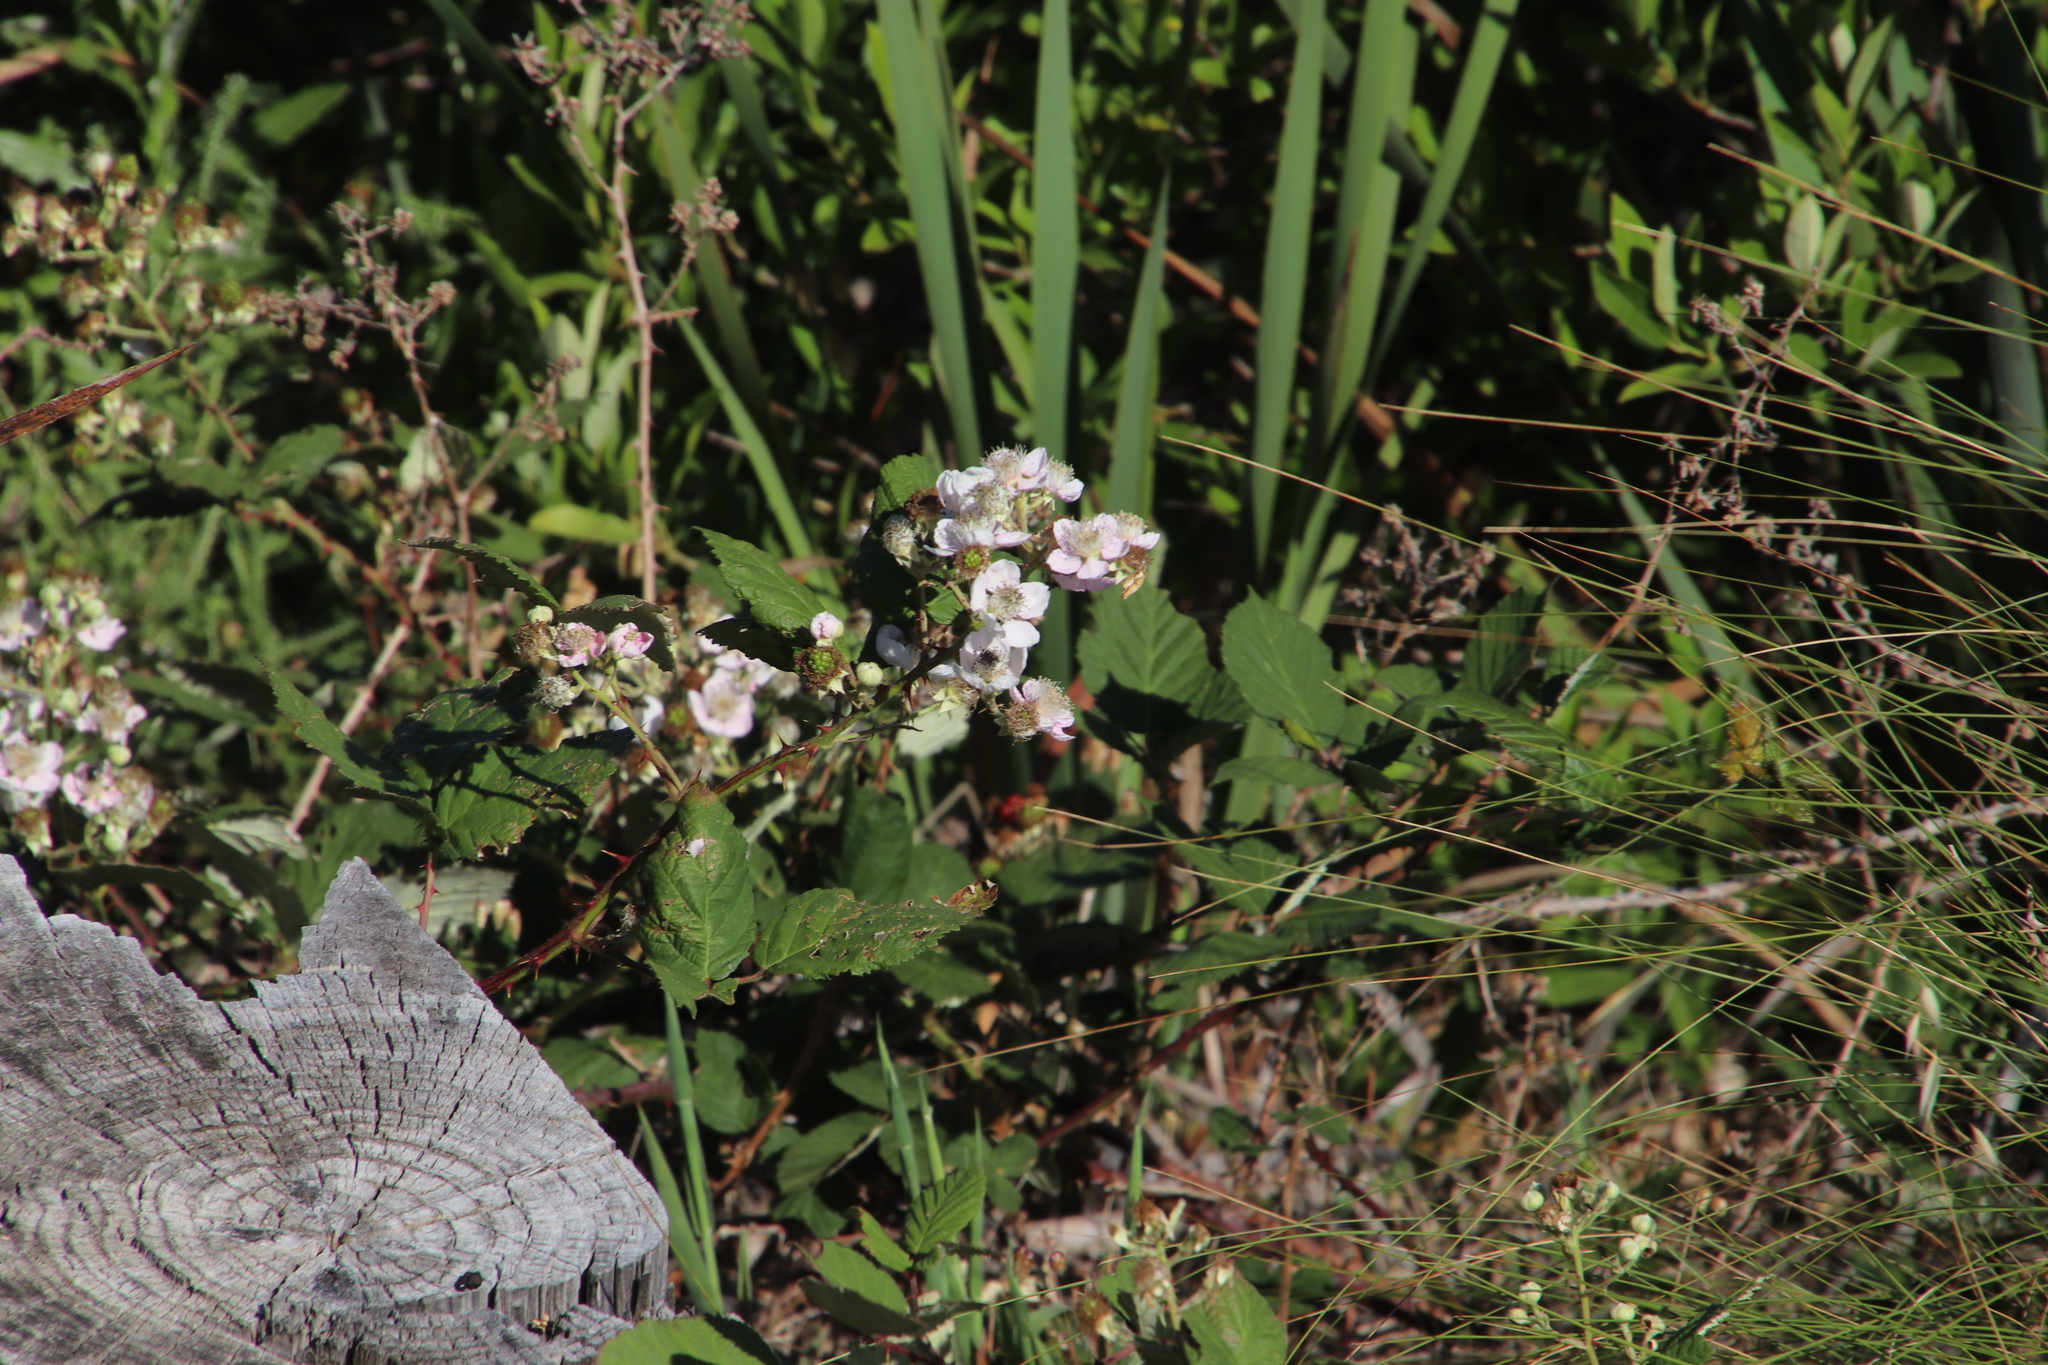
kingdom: Plantae
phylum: Tracheophyta
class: Magnoliopsida
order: Rosales
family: Rosaceae
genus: Rubus
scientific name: Rubus armeniacus
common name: Himalayan blackberry
